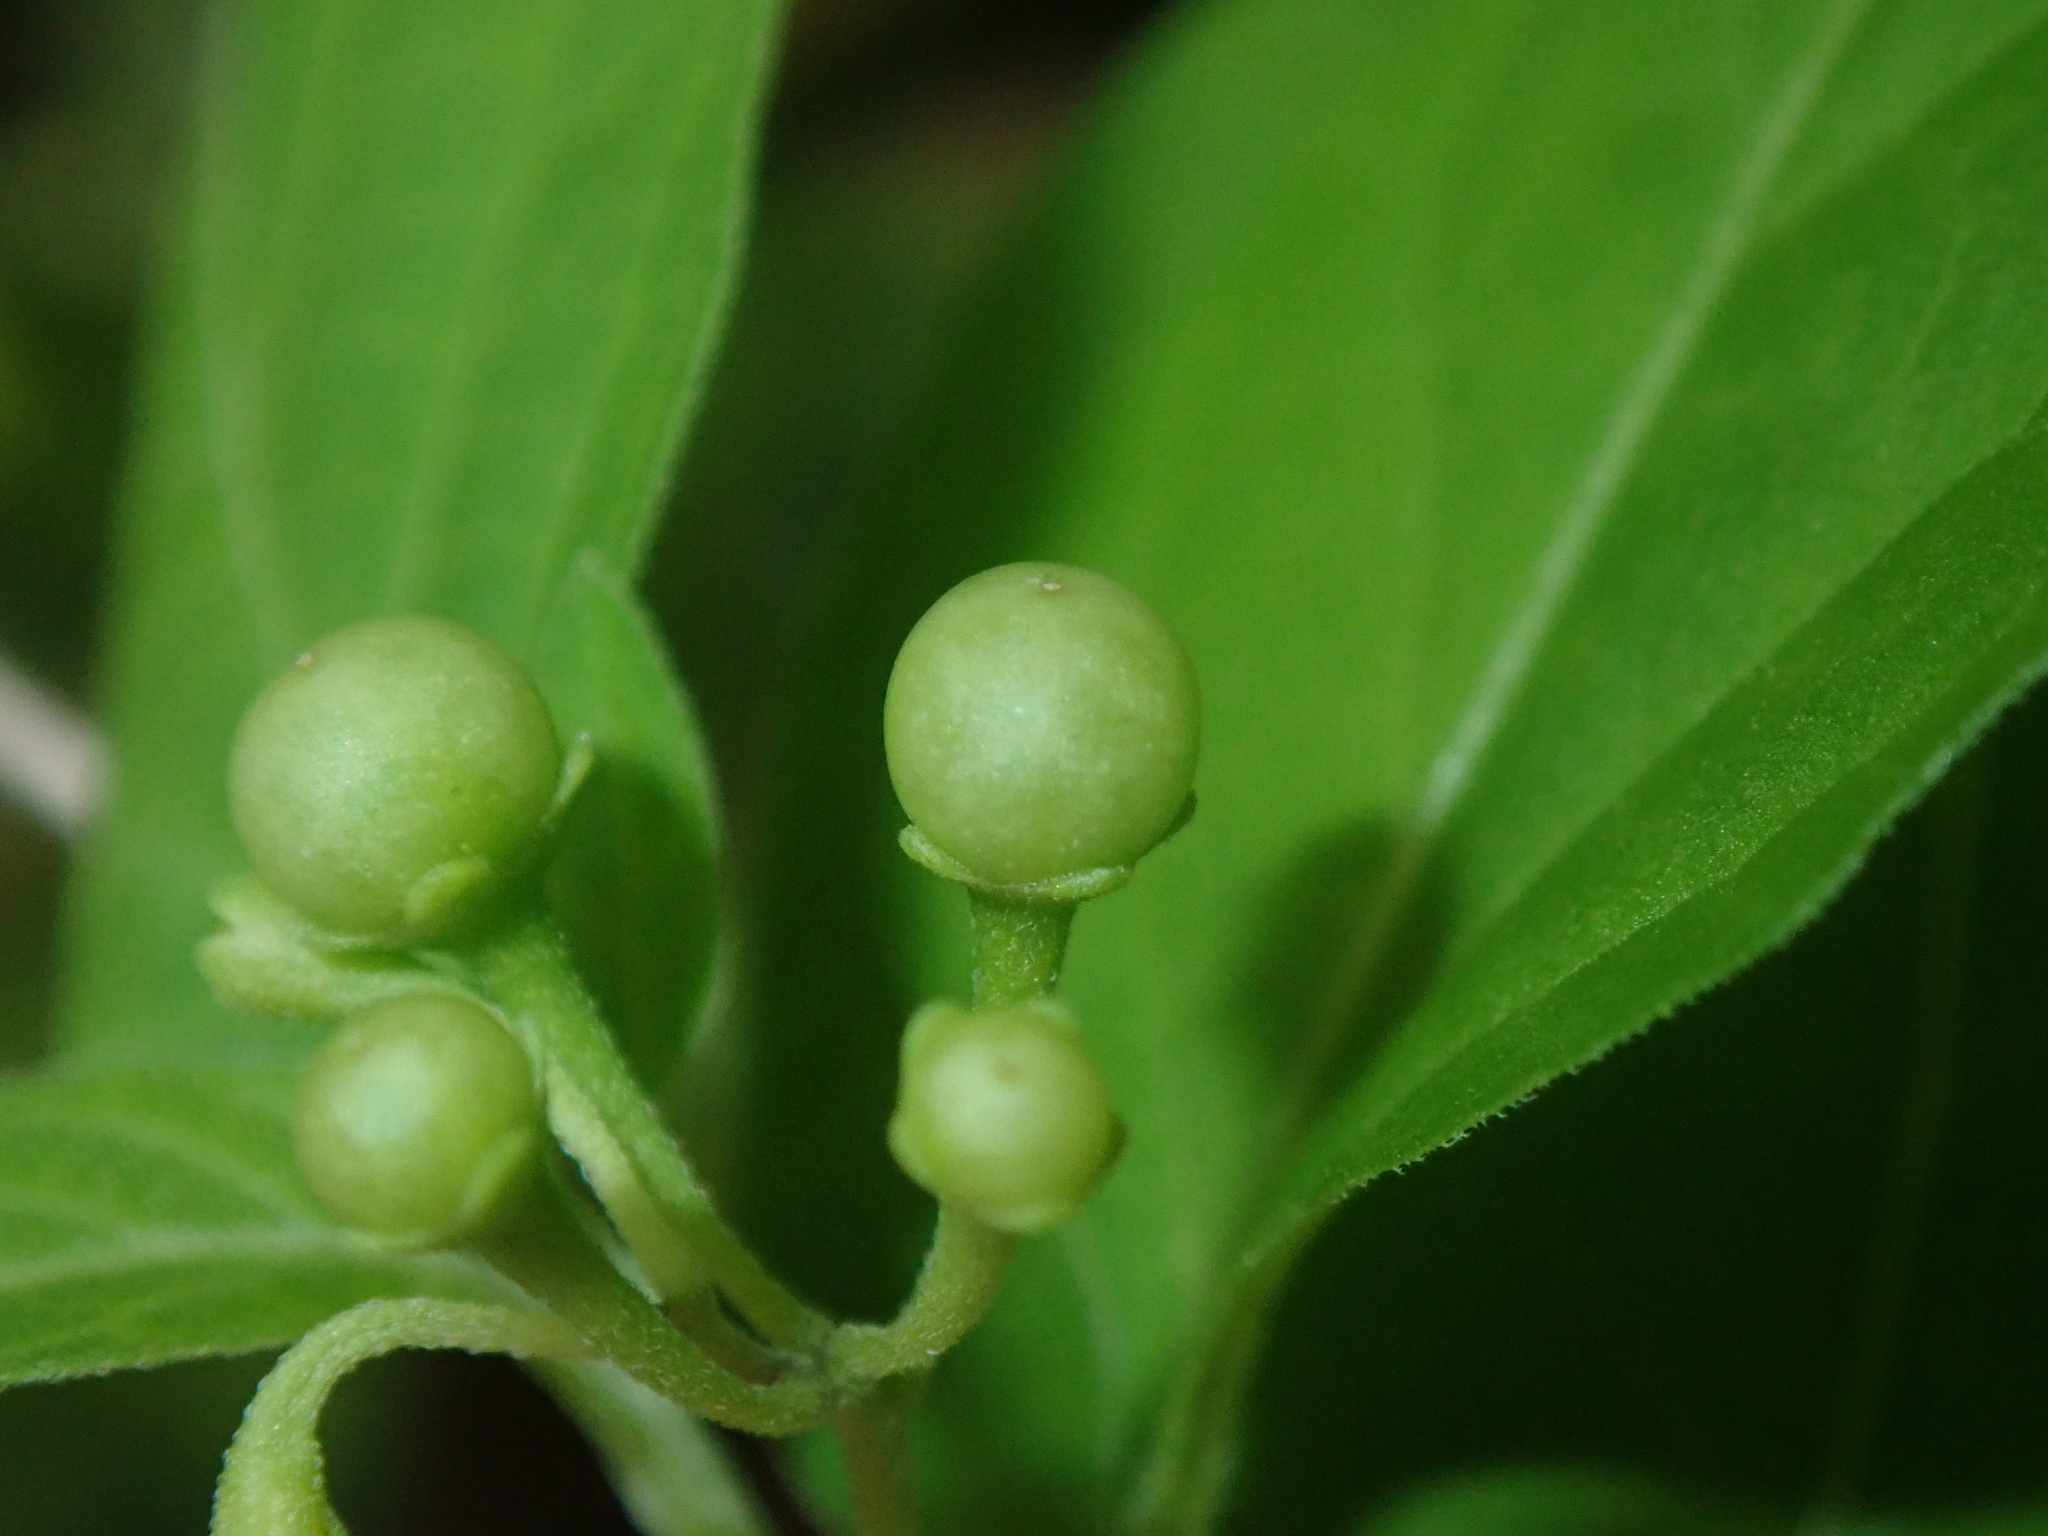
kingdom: Plantae
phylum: Tracheophyta
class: Magnoliopsida
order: Solanales
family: Solanaceae
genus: Solanum
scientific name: Solanum americanum
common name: American black nightshade
